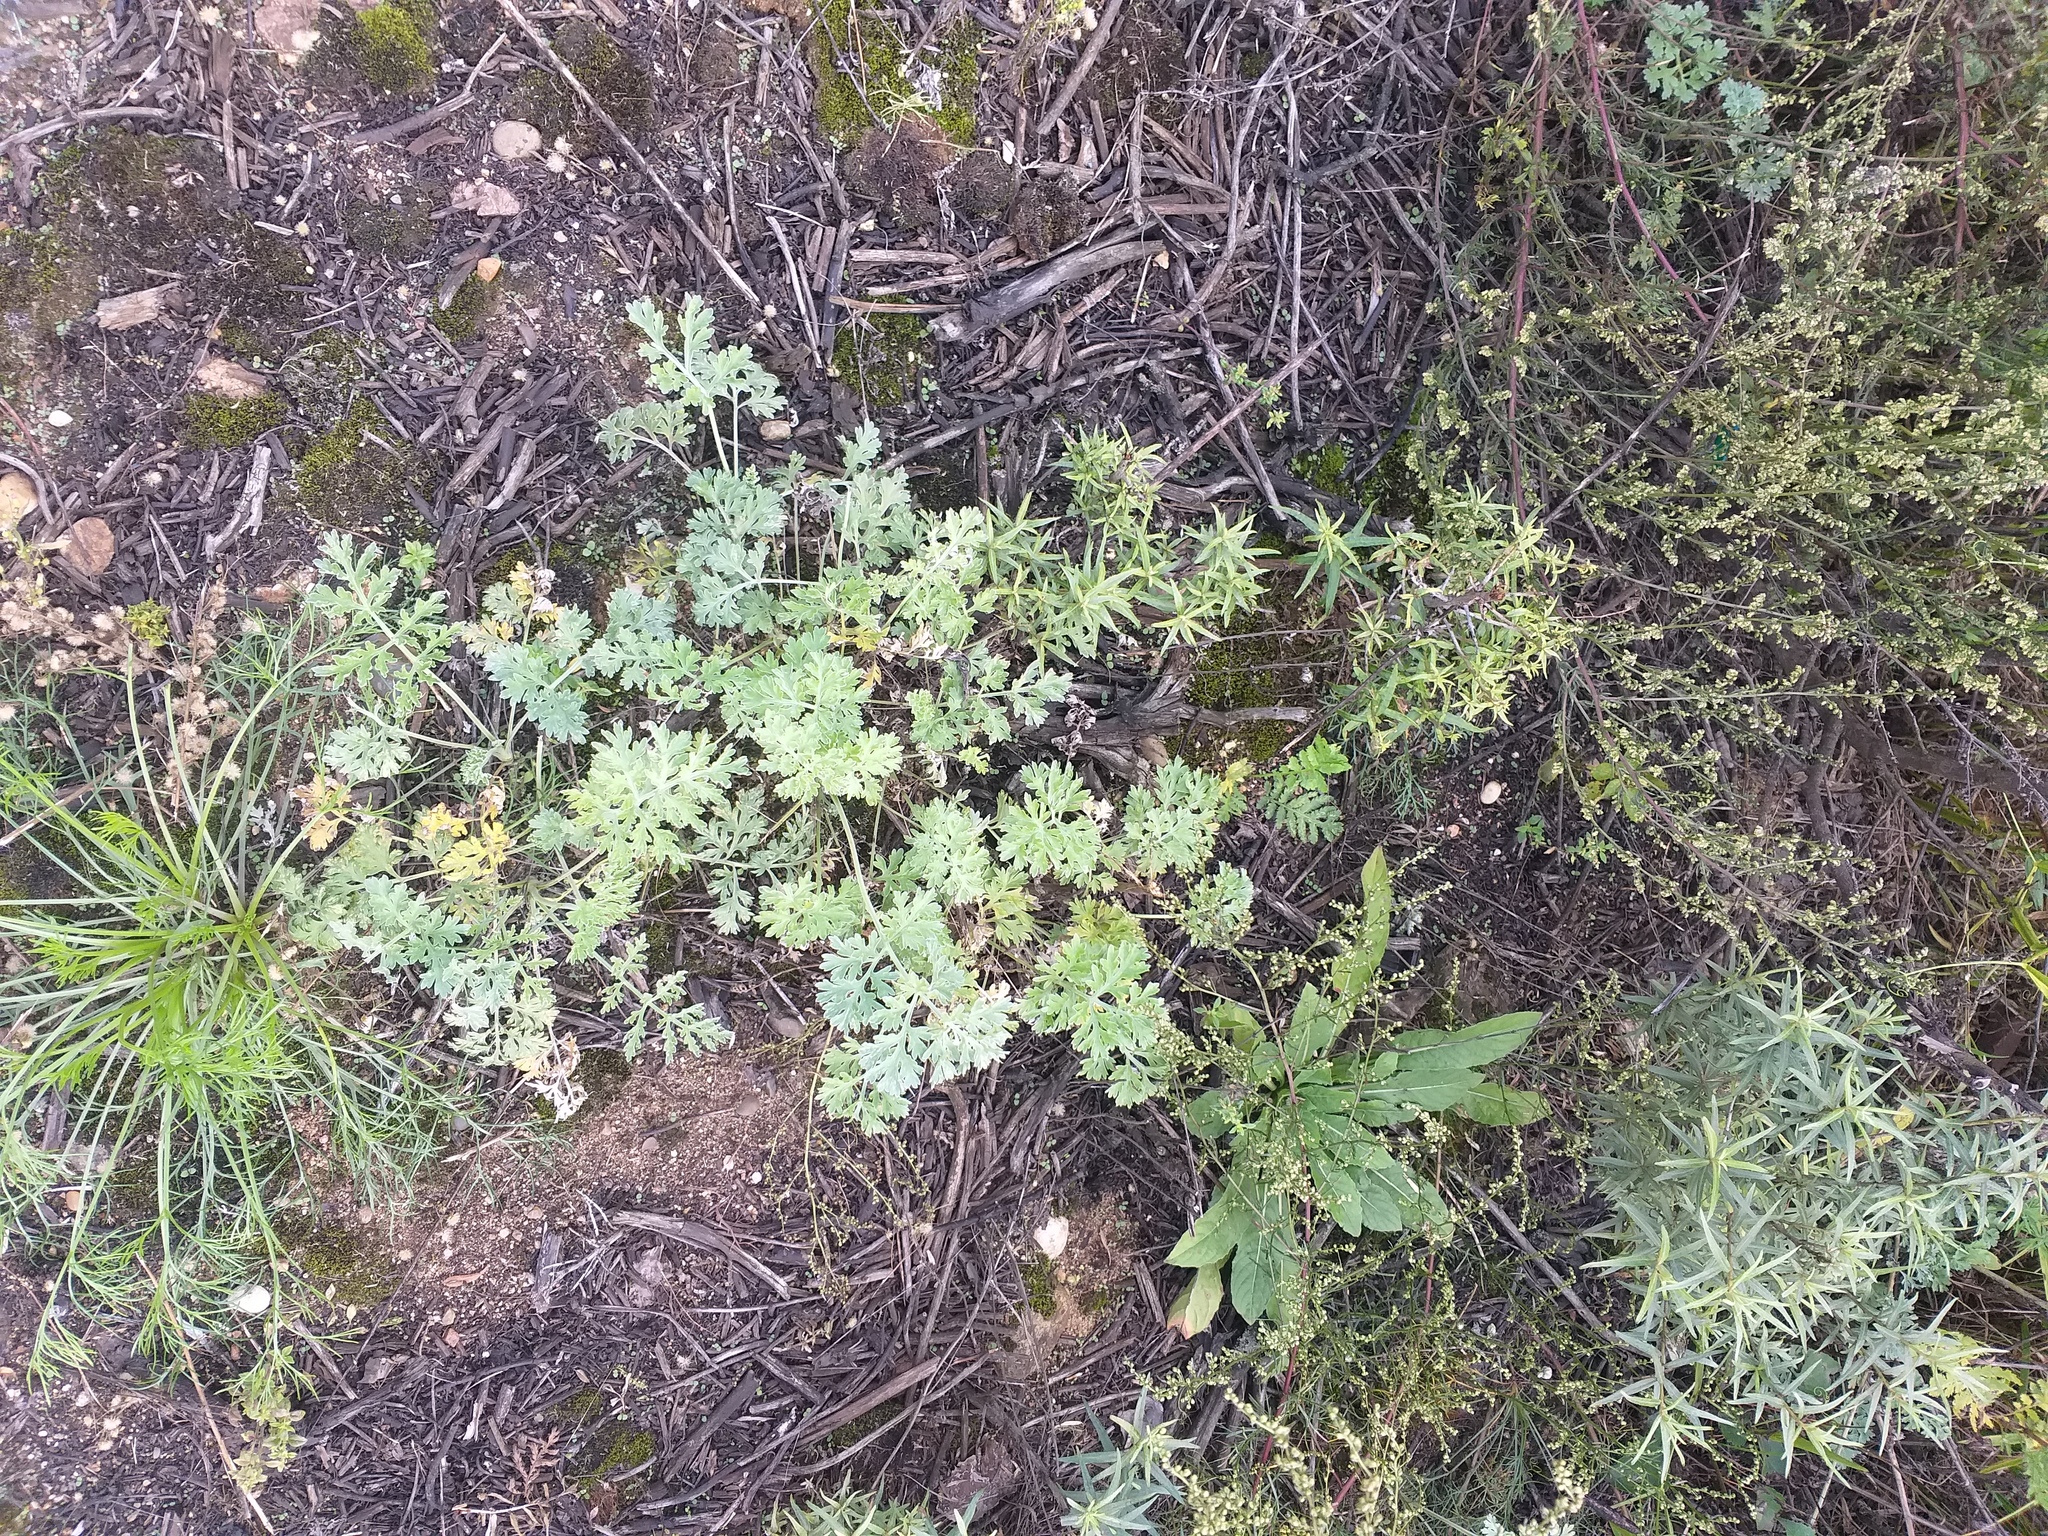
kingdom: Plantae
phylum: Tracheophyta
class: Magnoliopsida
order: Asterales
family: Asteraceae
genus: Artemisia
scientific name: Artemisia absinthium
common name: Wormwood
